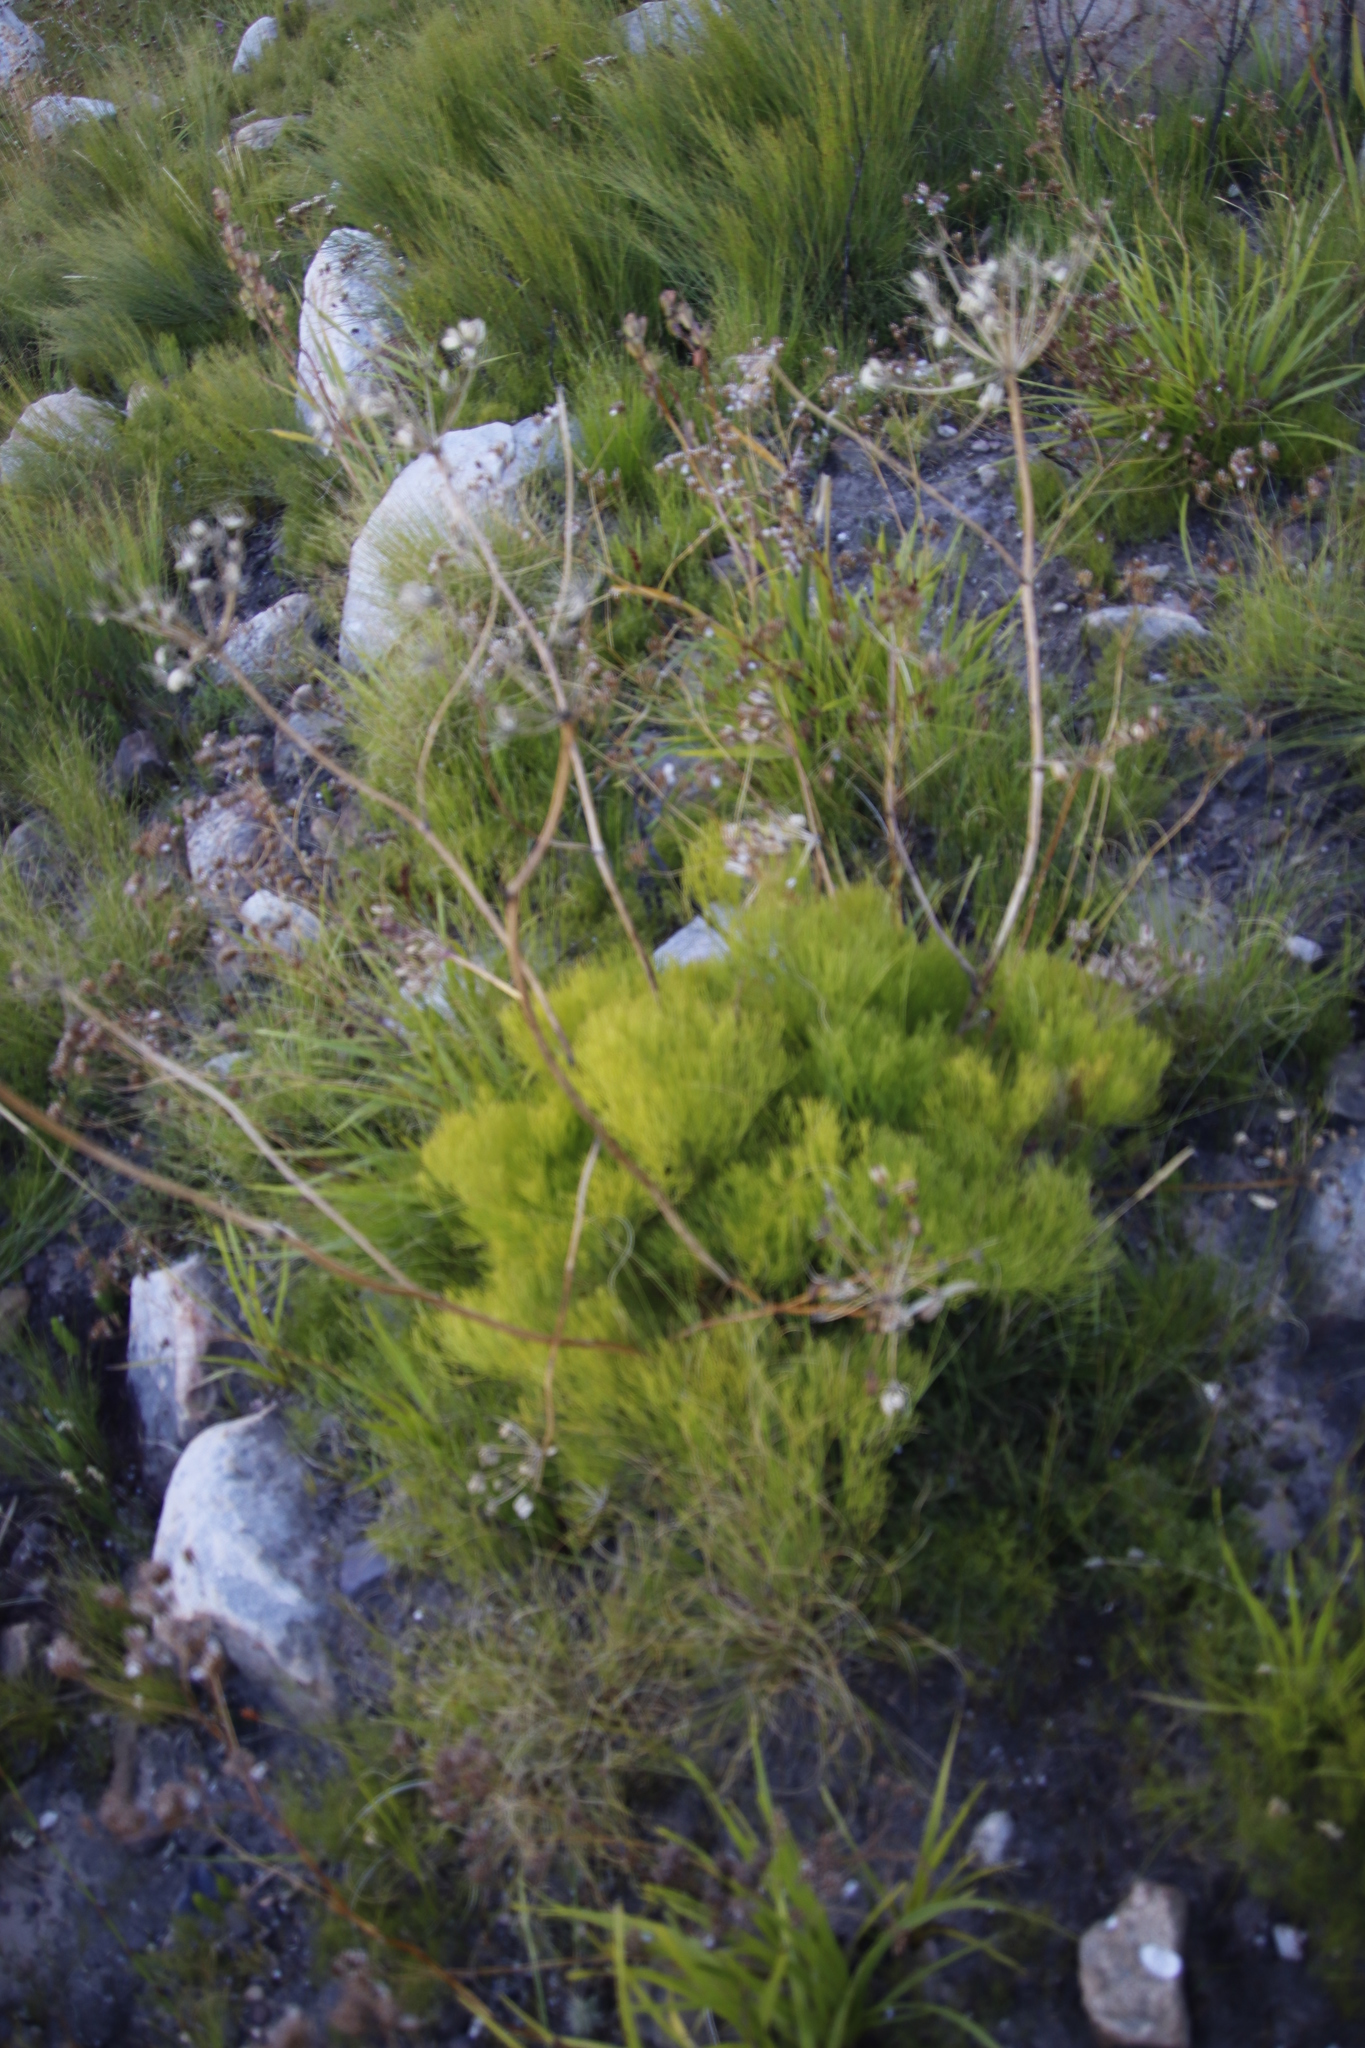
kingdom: Plantae
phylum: Tracheophyta
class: Magnoliopsida
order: Apiales
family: Apiaceae
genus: Nanobubon
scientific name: Nanobubon strictum
